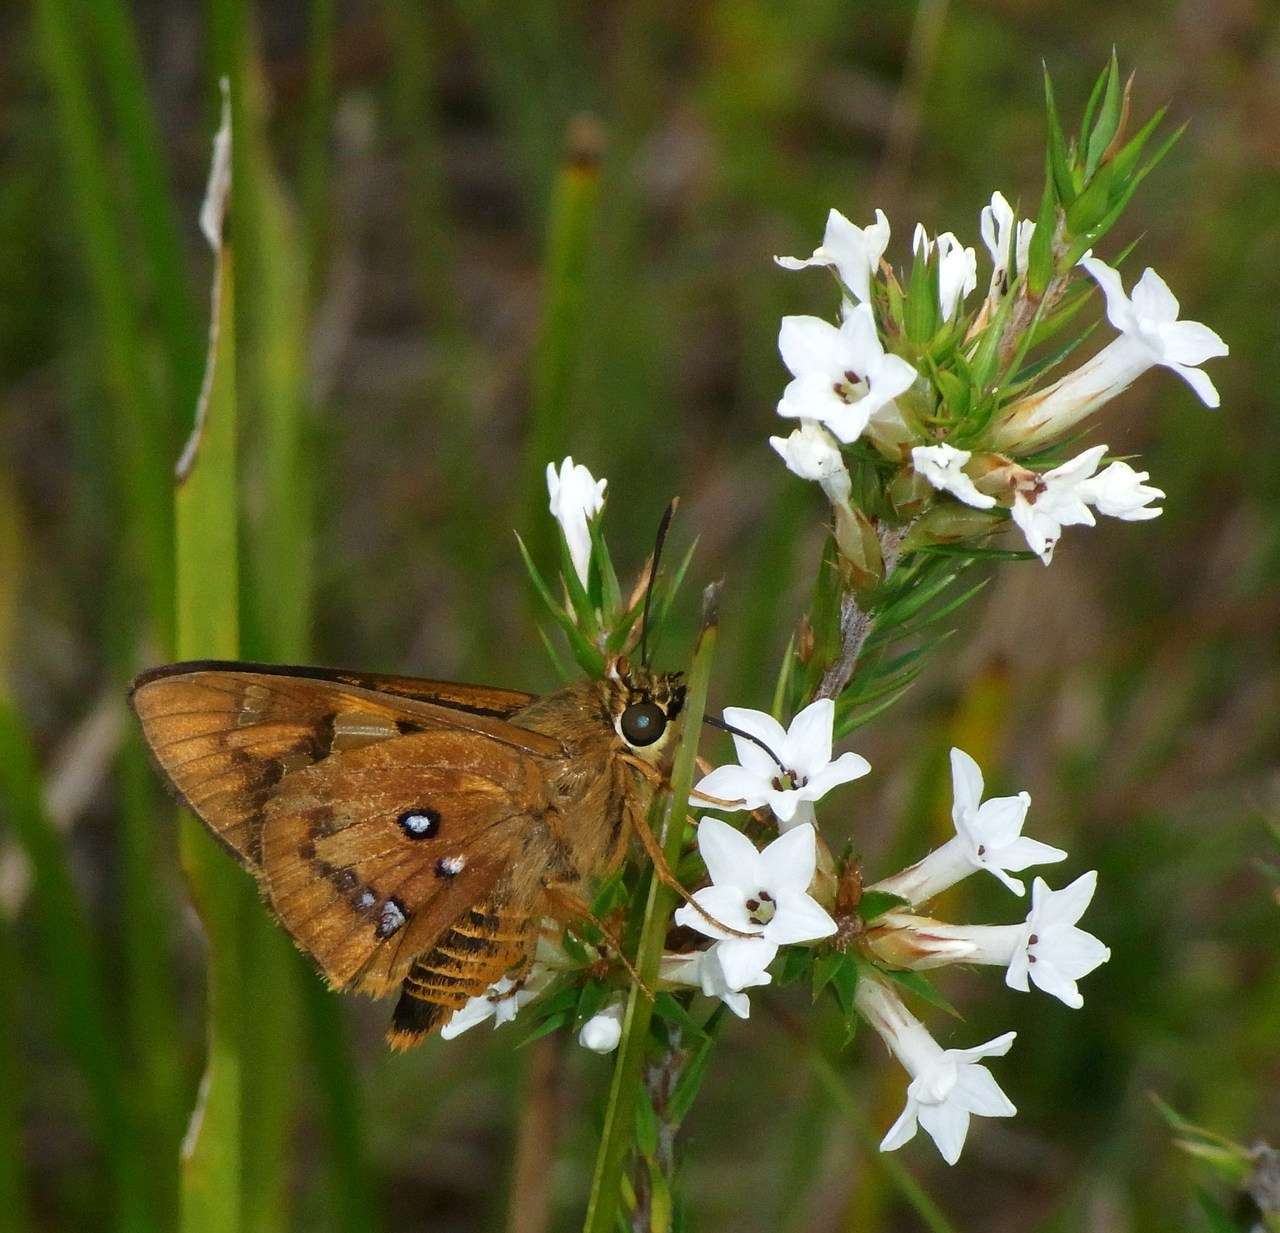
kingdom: Plantae
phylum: Tracheophyta
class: Magnoliopsida
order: Ericales
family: Ericaceae
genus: Epacris
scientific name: Epacris lanuginosa
